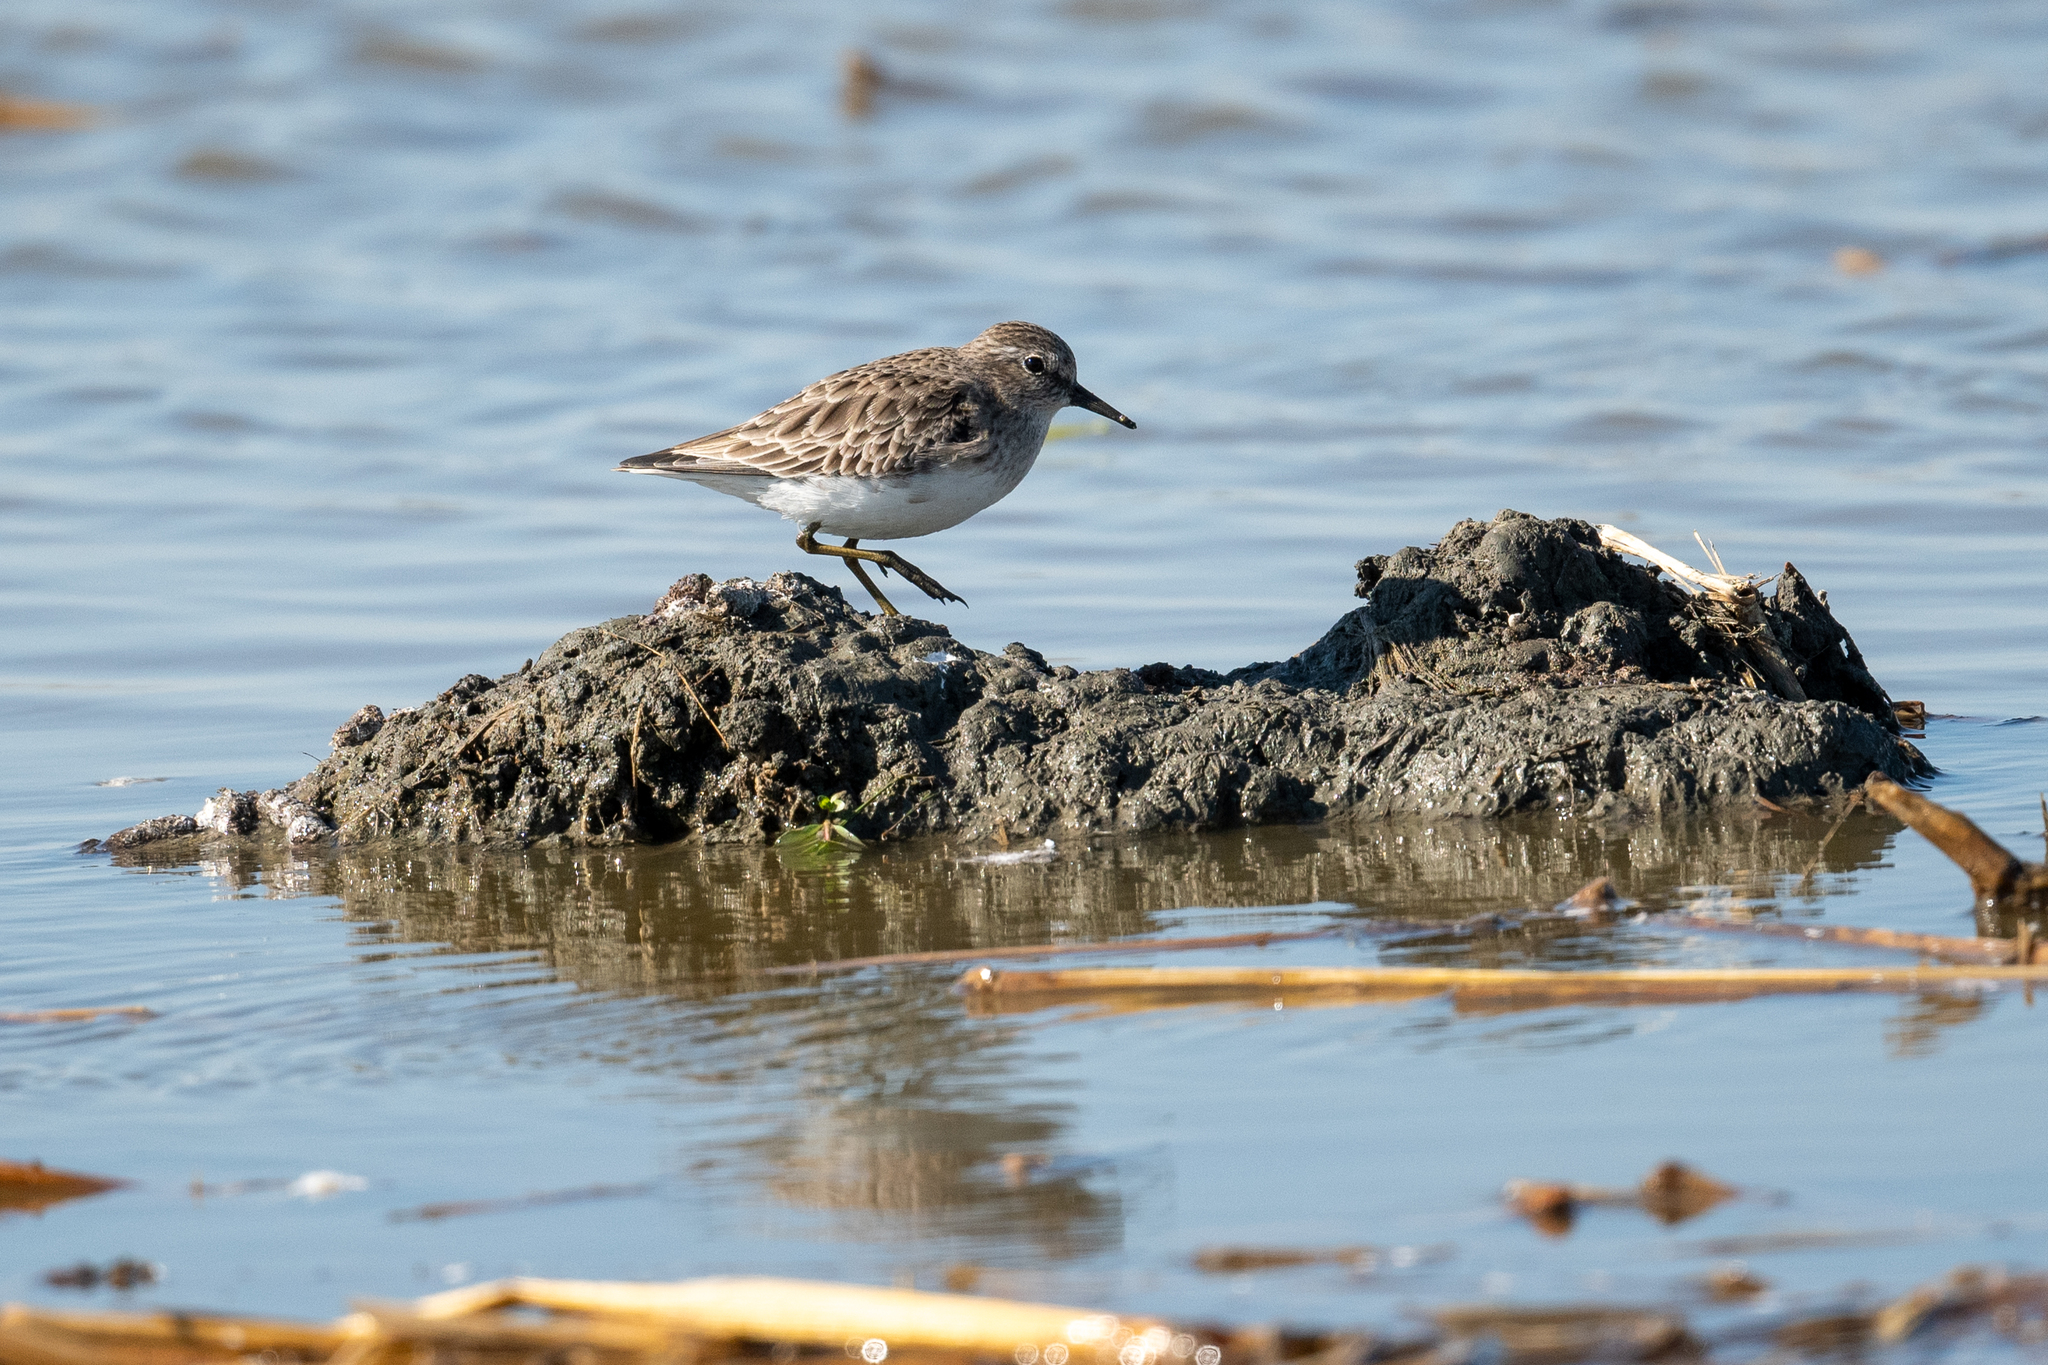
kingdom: Animalia
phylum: Chordata
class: Aves
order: Charadriiformes
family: Scolopacidae
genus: Calidris
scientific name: Calidris minutilla
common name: Least sandpiper
